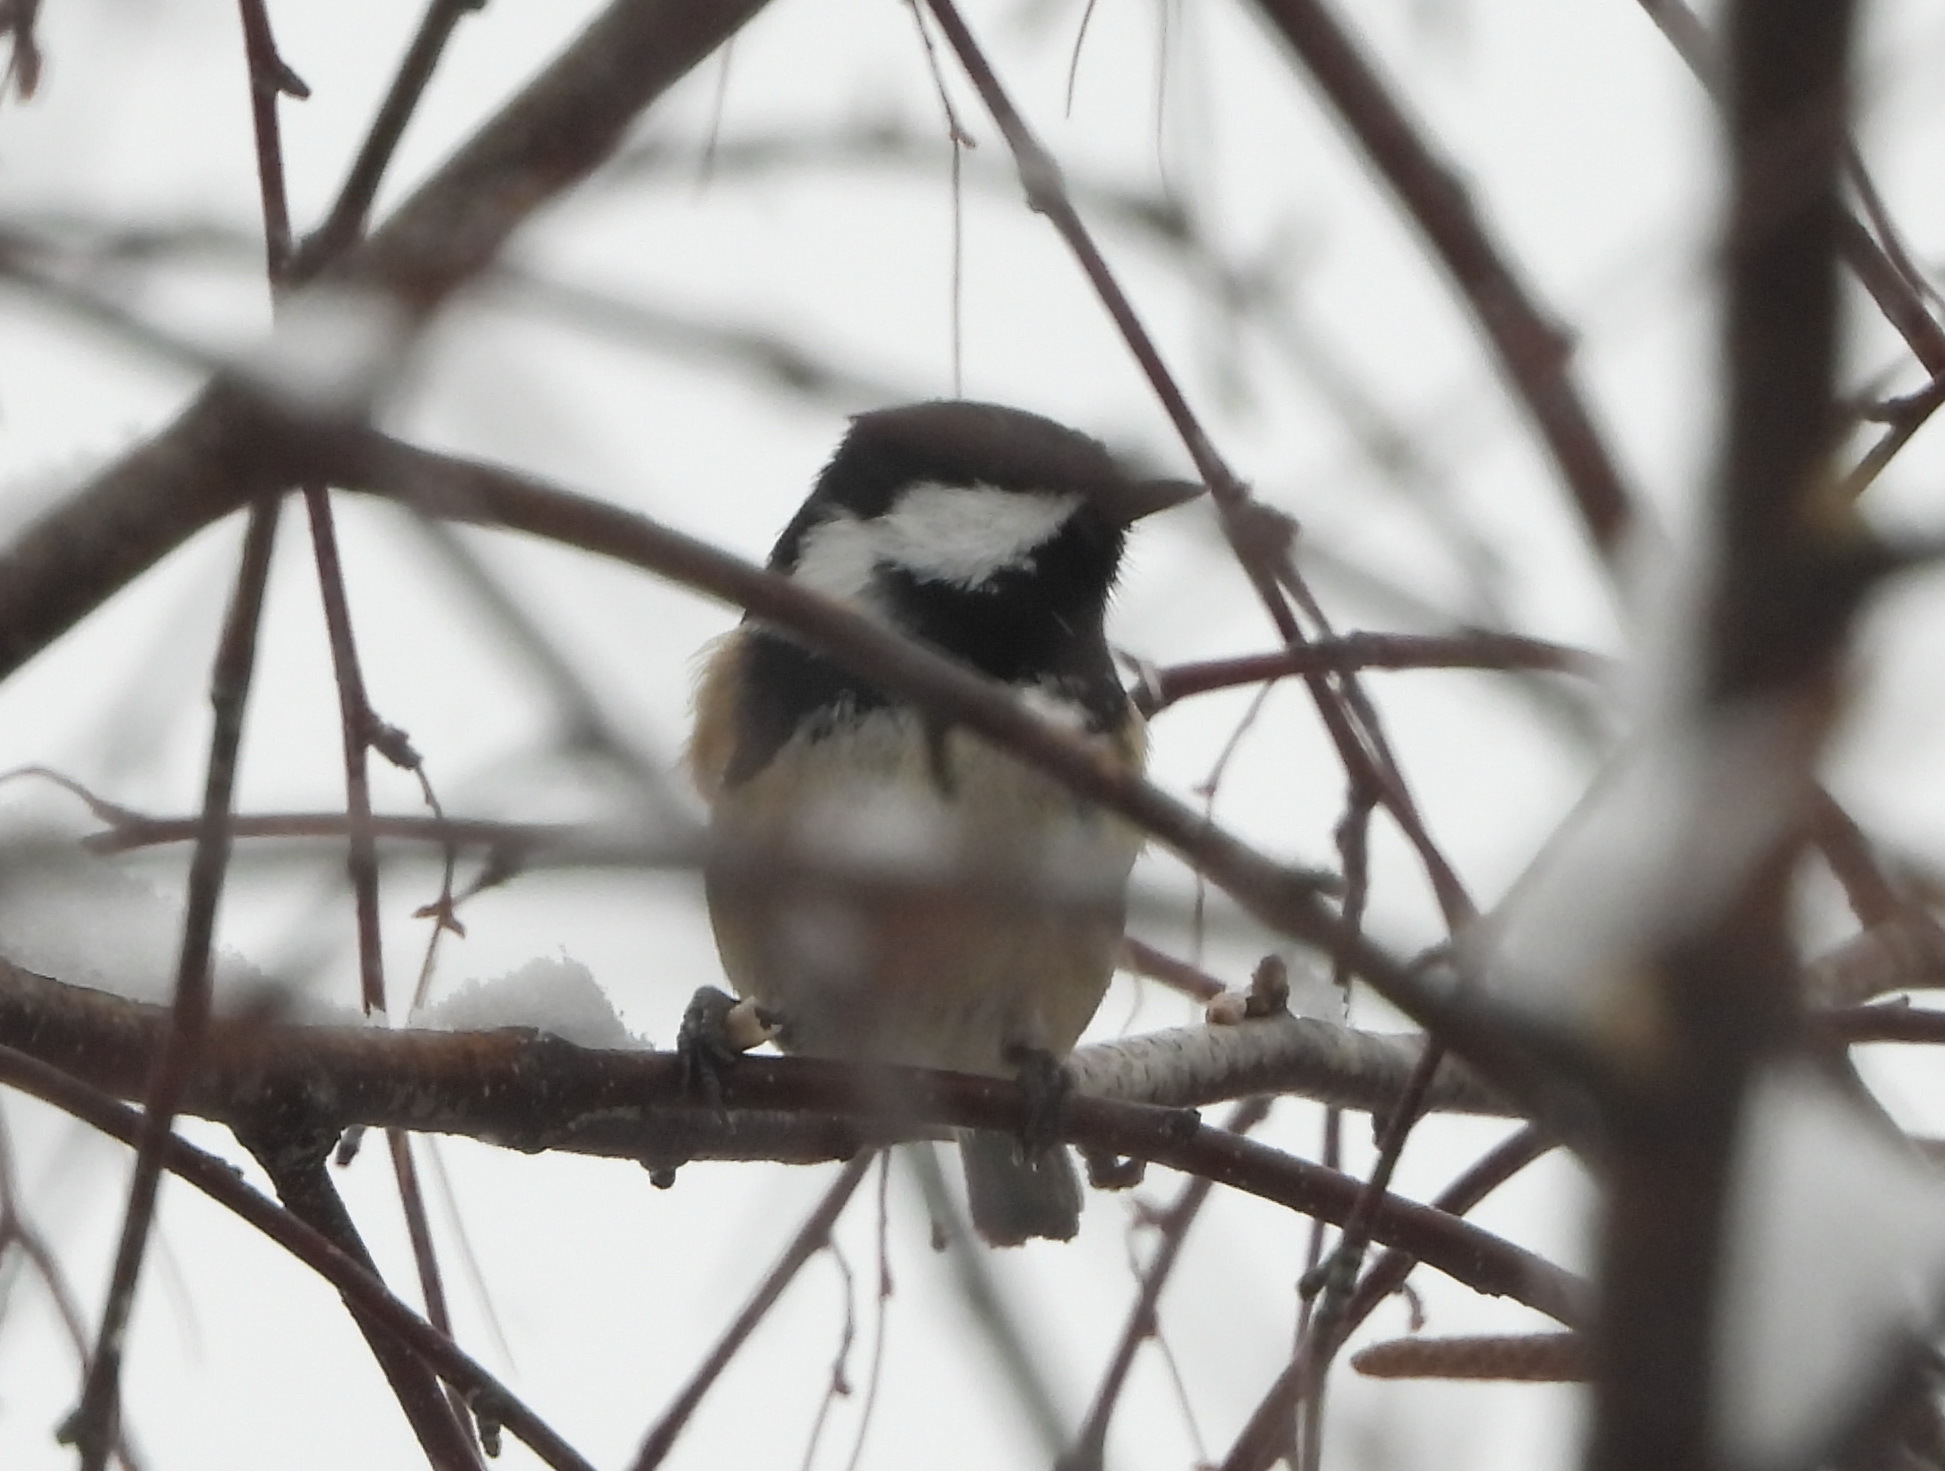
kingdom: Animalia
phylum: Chordata
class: Aves
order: Passeriformes
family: Paridae
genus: Periparus
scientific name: Periparus ater
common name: Coal tit
